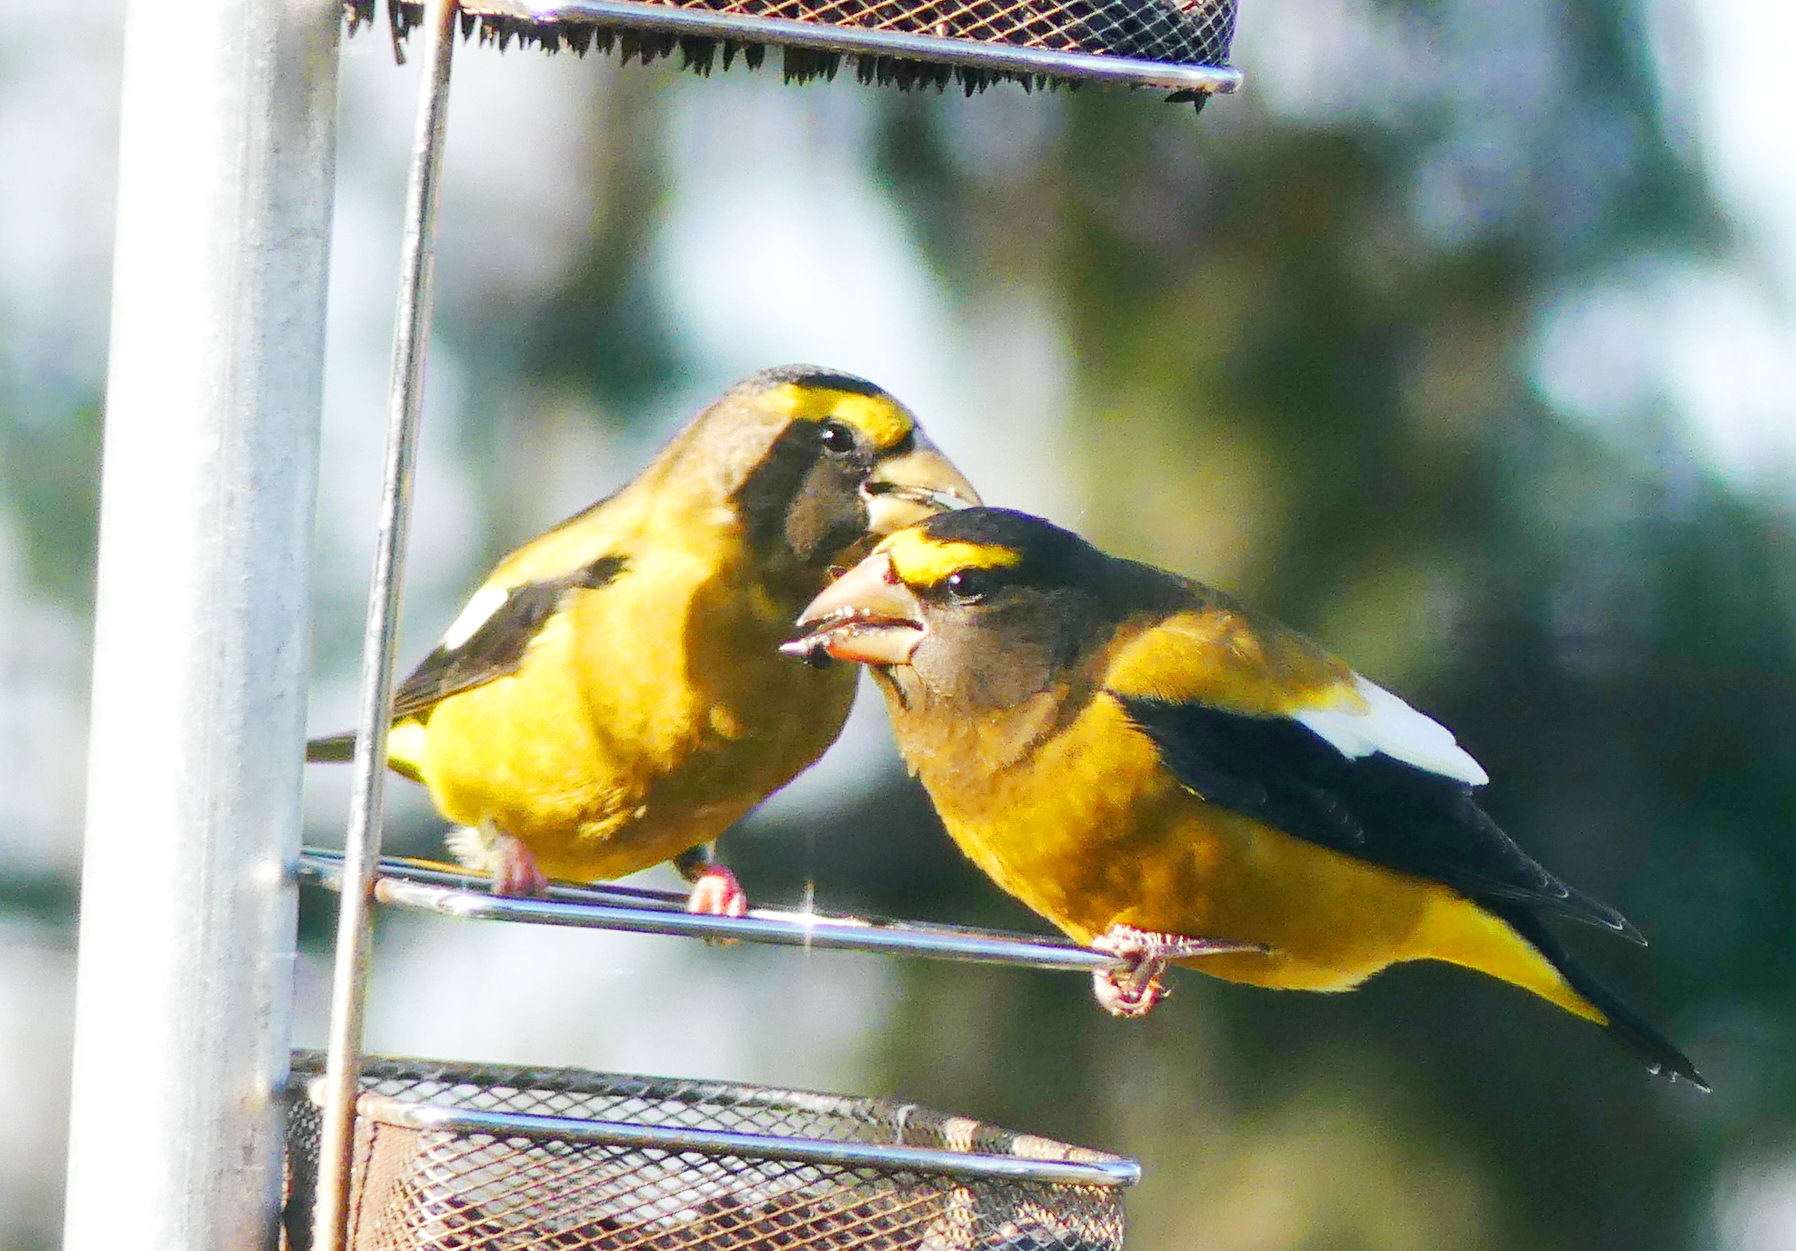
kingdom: Animalia
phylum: Chordata
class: Aves
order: Passeriformes
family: Fringillidae
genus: Hesperiphona
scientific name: Hesperiphona vespertina
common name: Evening grosbeak
